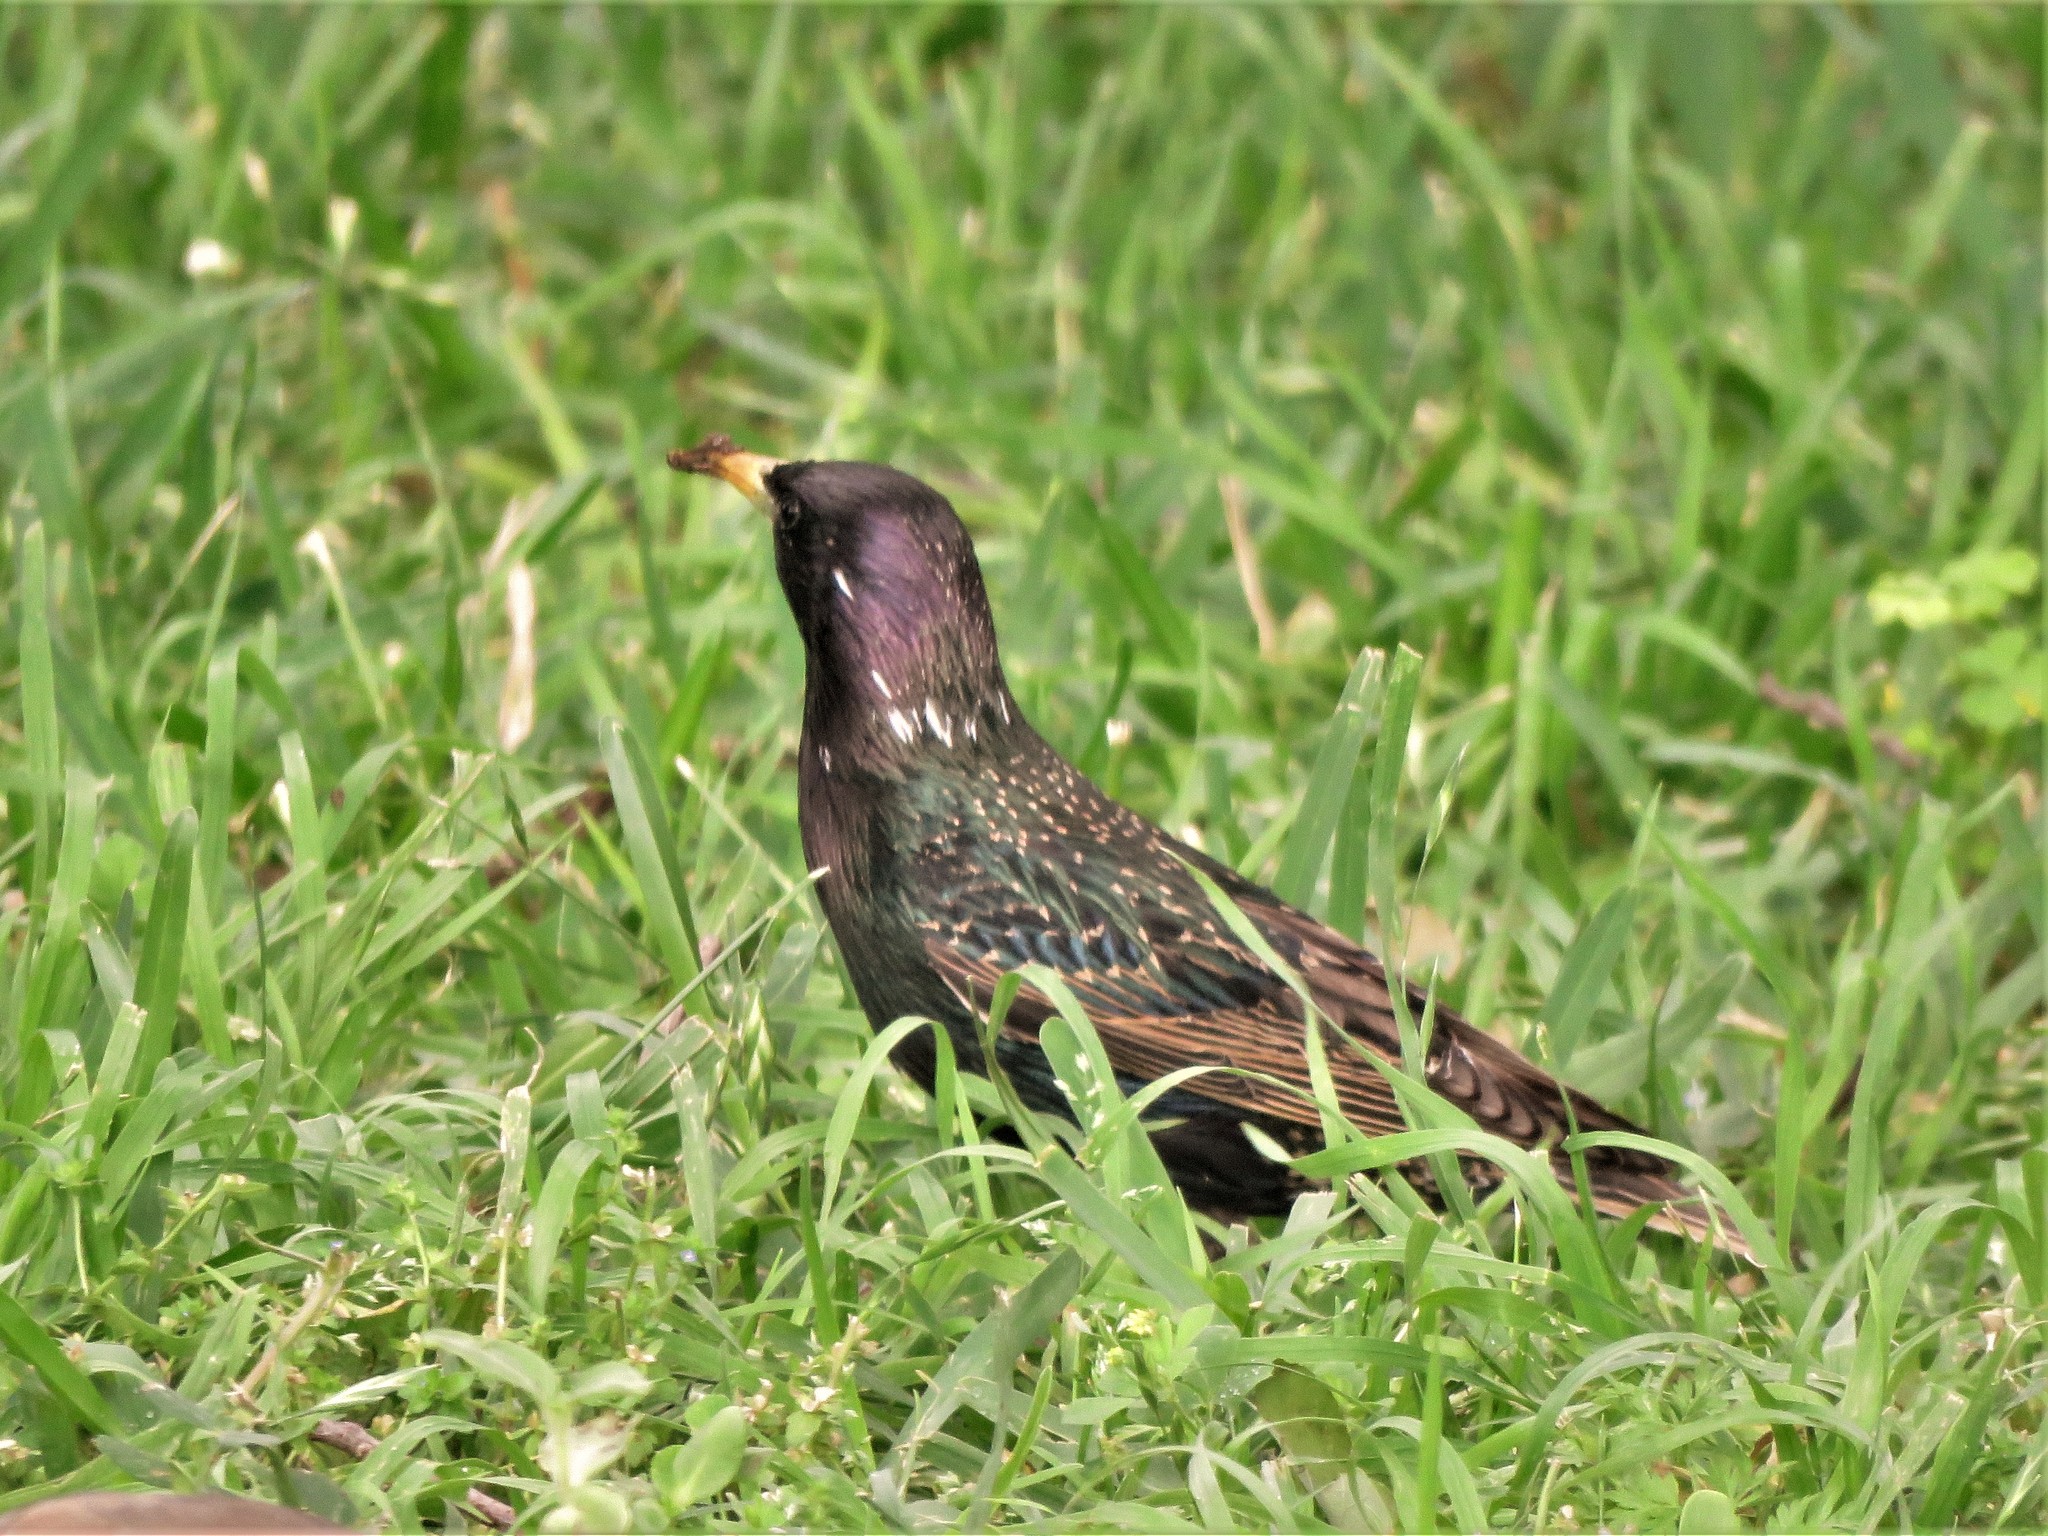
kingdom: Animalia
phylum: Chordata
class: Aves
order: Passeriformes
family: Sturnidae
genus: Sturnus
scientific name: Sturnus vulgaris
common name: Common starling
